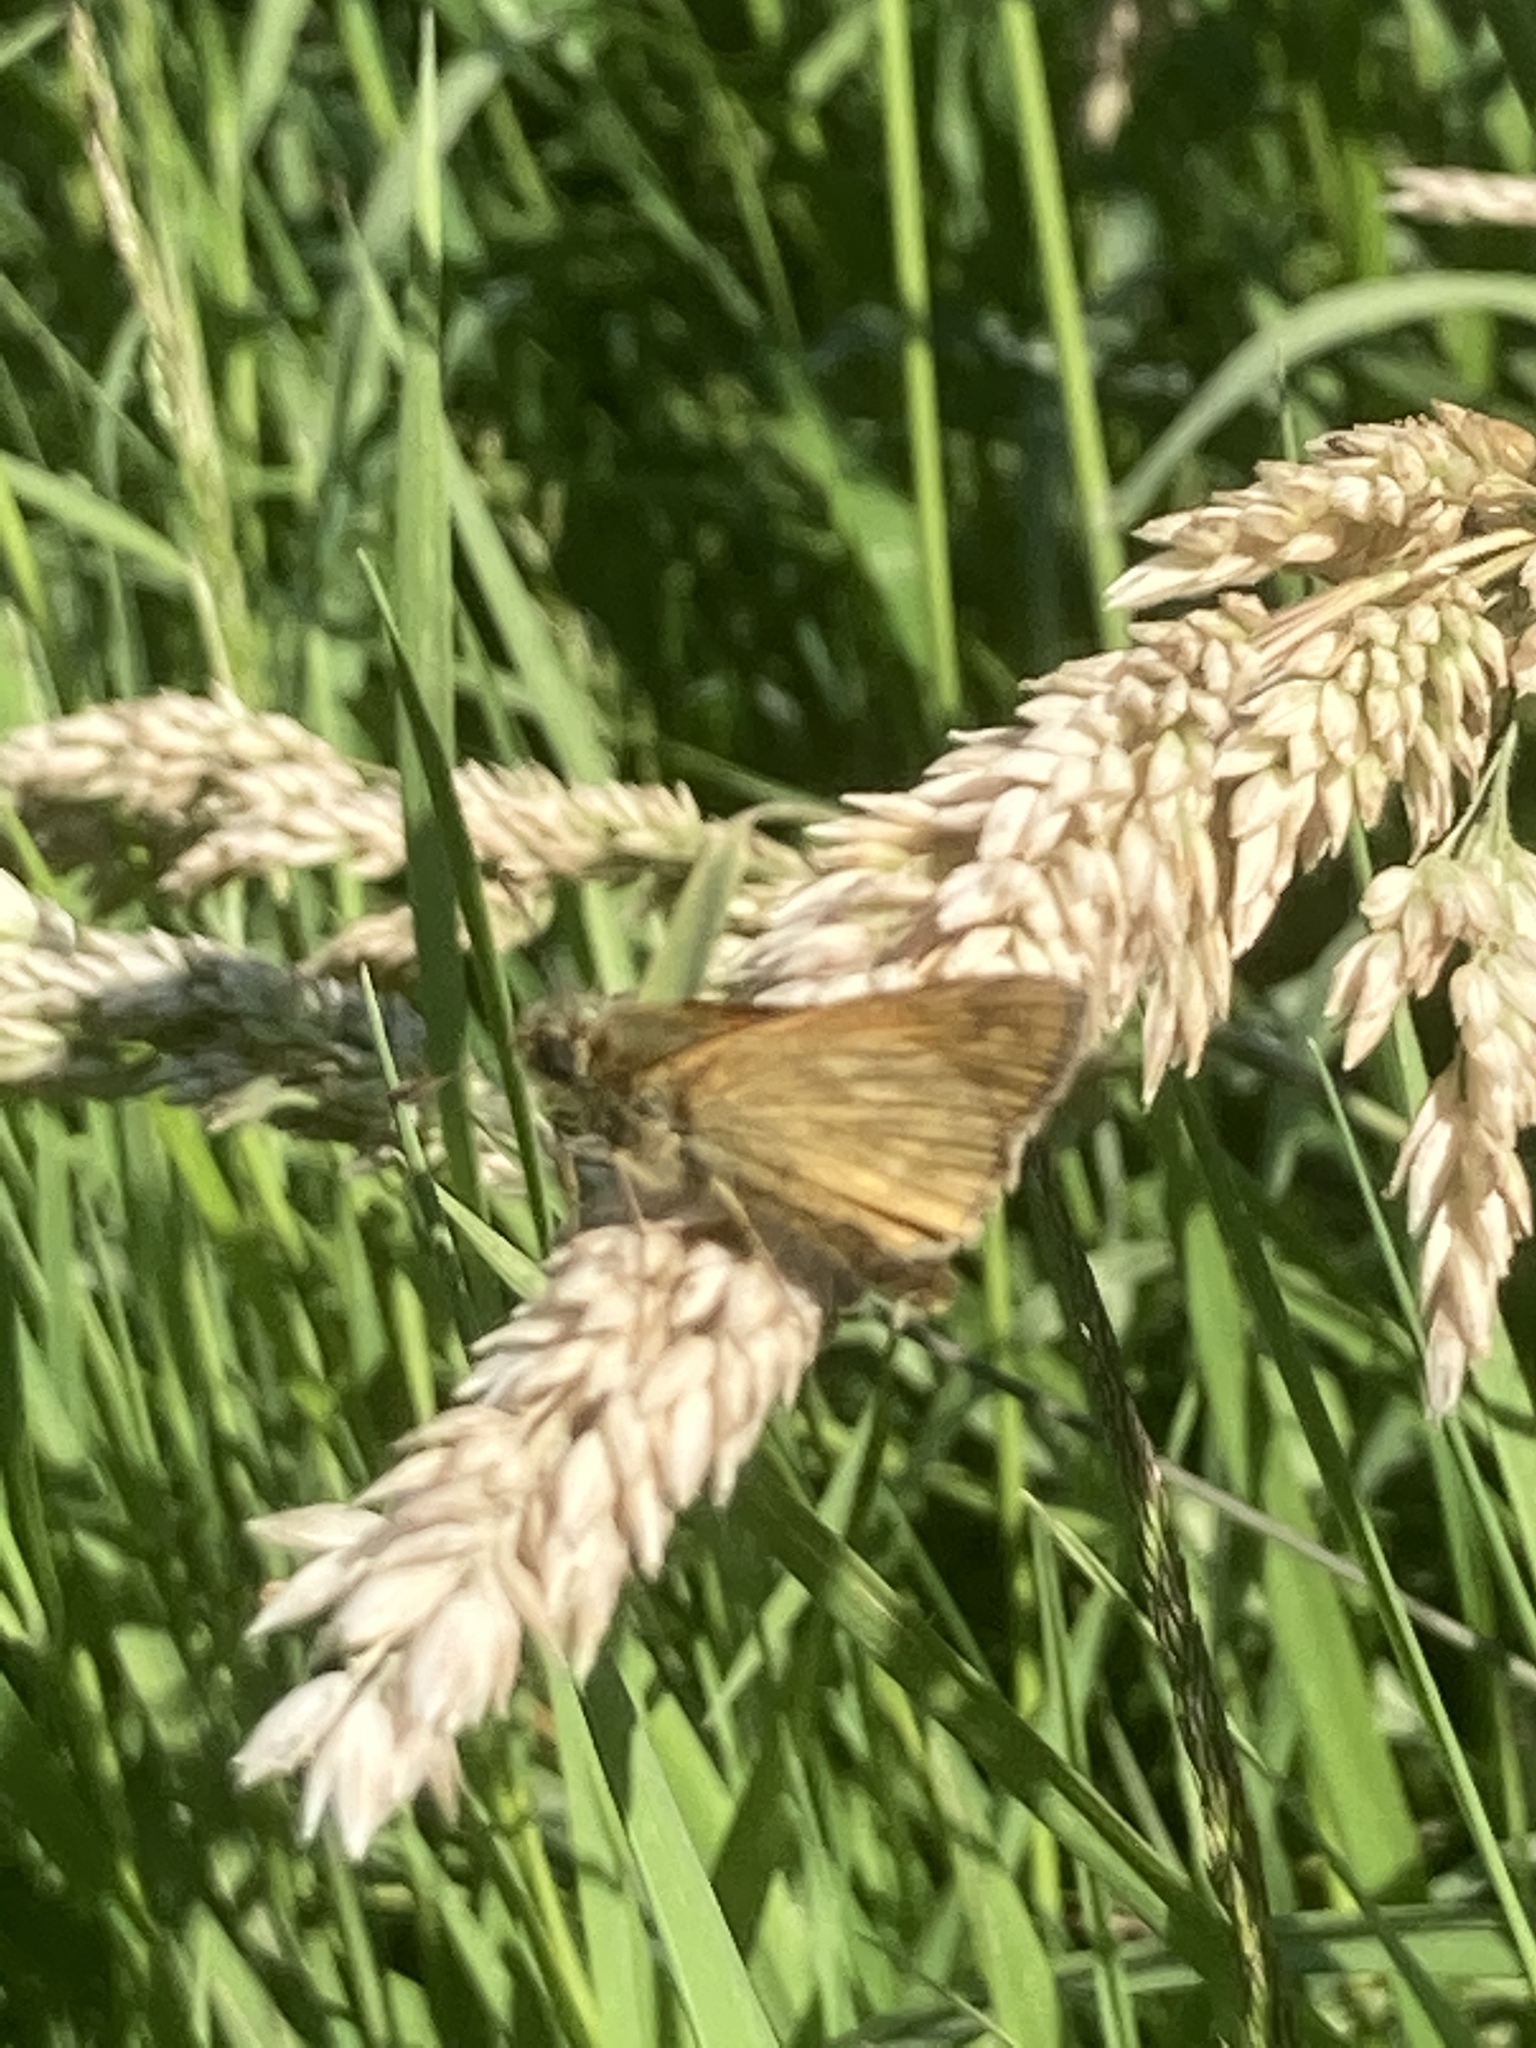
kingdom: Animalia
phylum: Arthropoda
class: Insecta
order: Lepidoptera
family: Hesperiidae
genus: Ochlodes
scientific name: Ochlodes venata
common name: Large skipper
